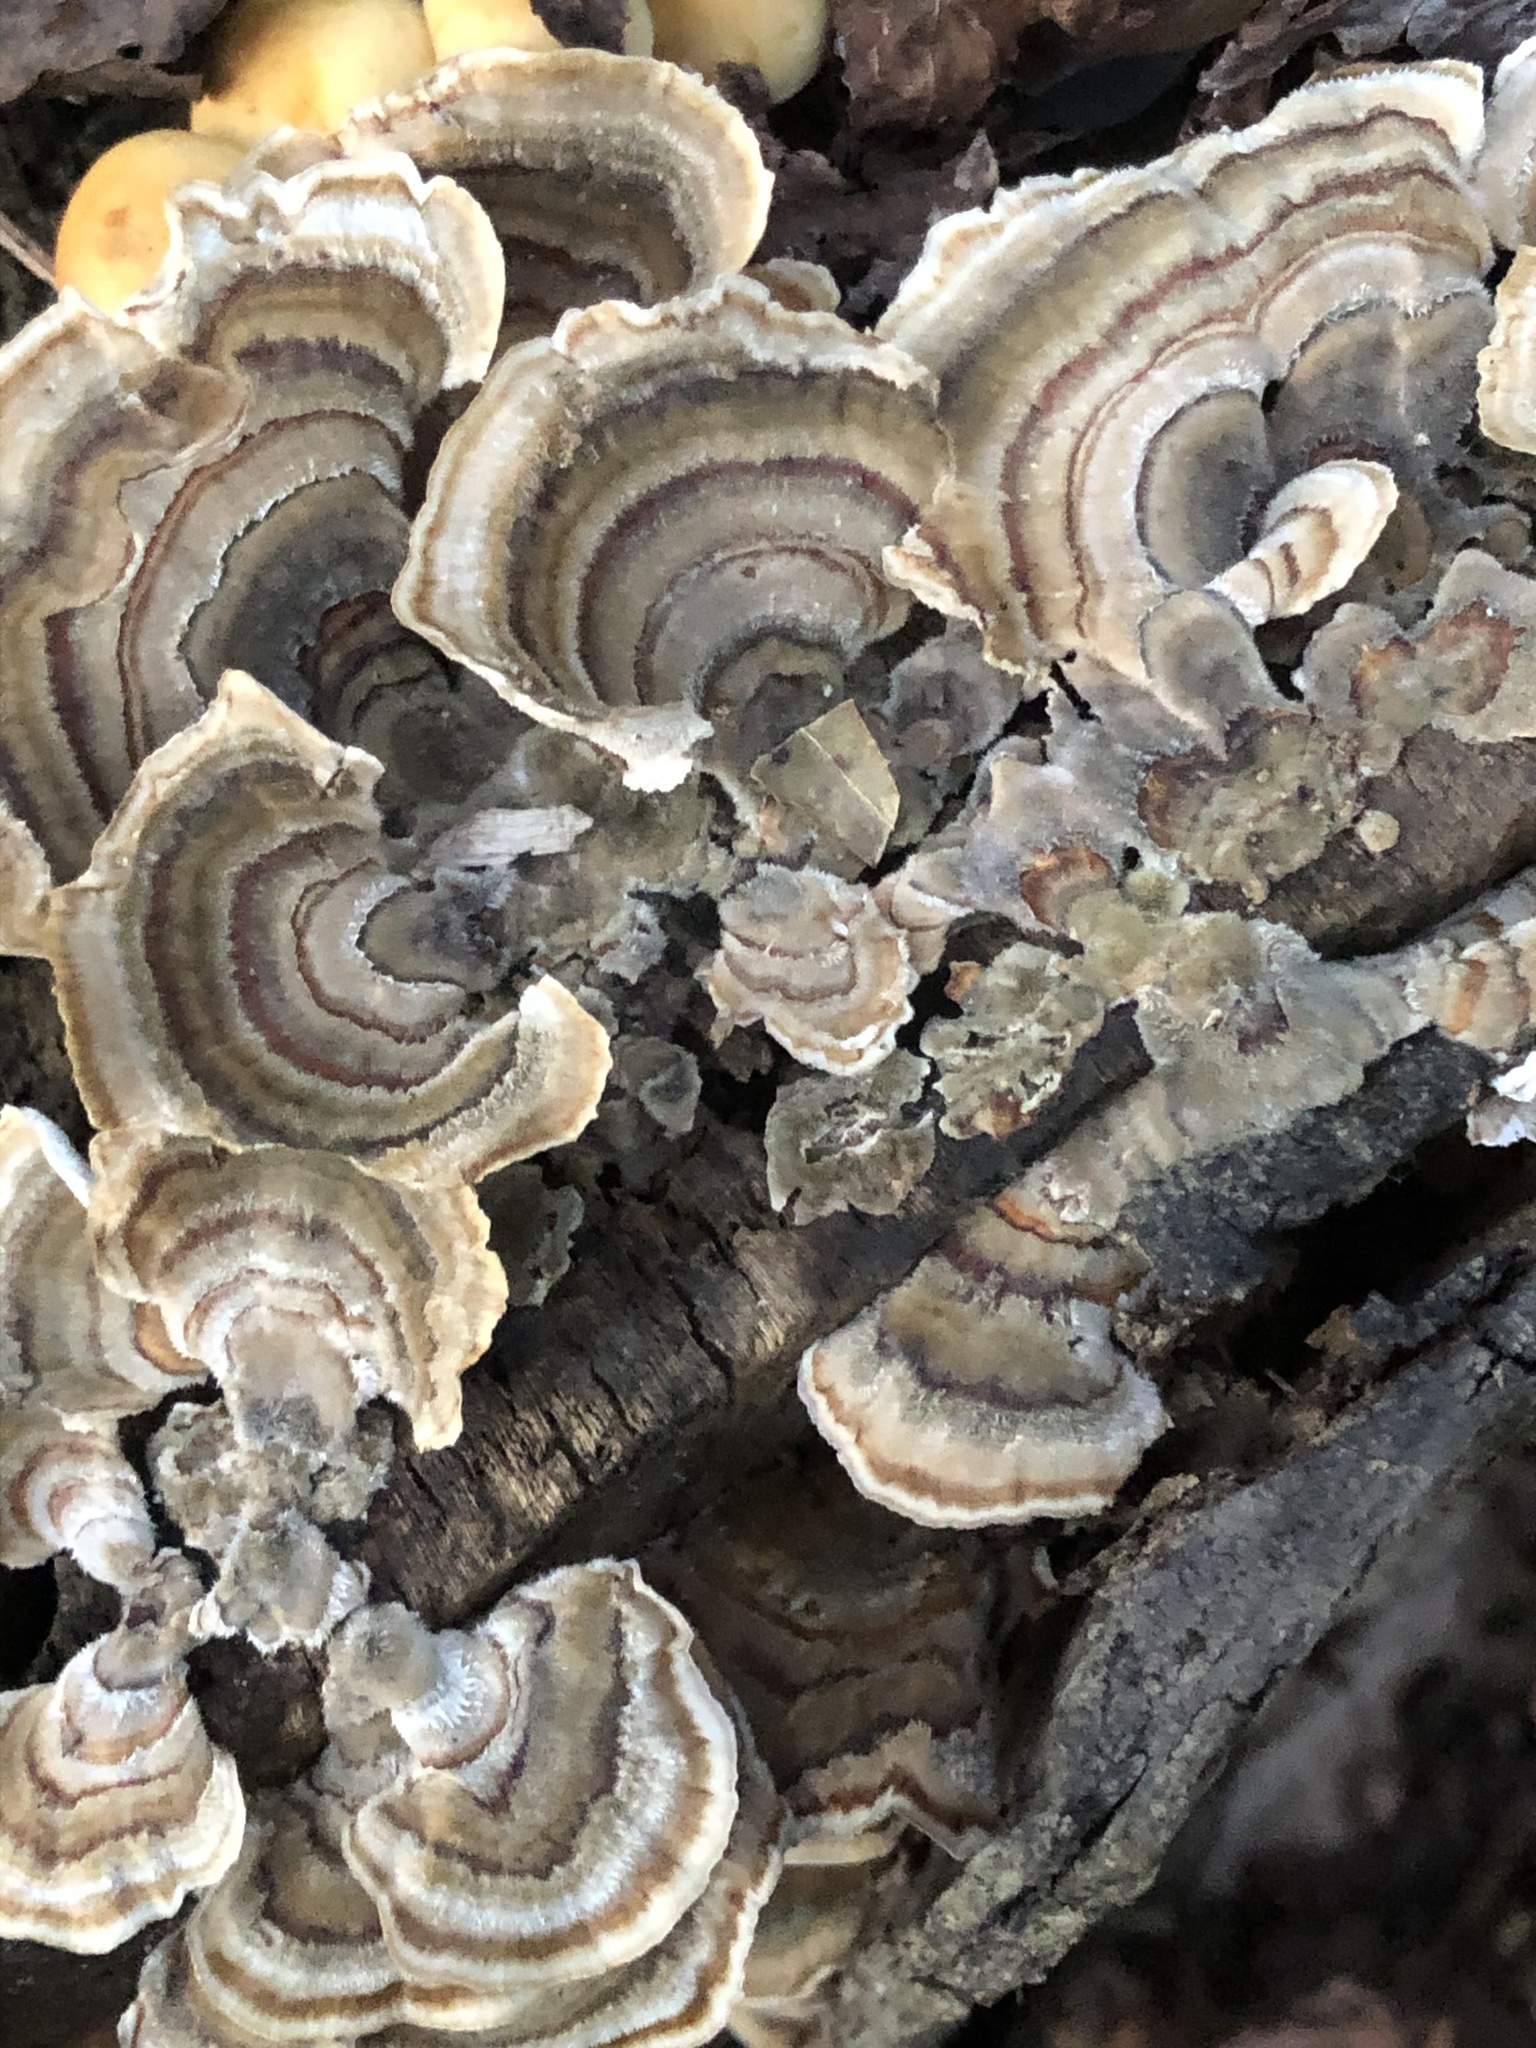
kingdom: Fungi
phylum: Basidiomycota
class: Agaricomycetes
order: Polyporales
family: Polyporaceae
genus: Trametes
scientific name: Trametes versicolor
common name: Turkeytail
